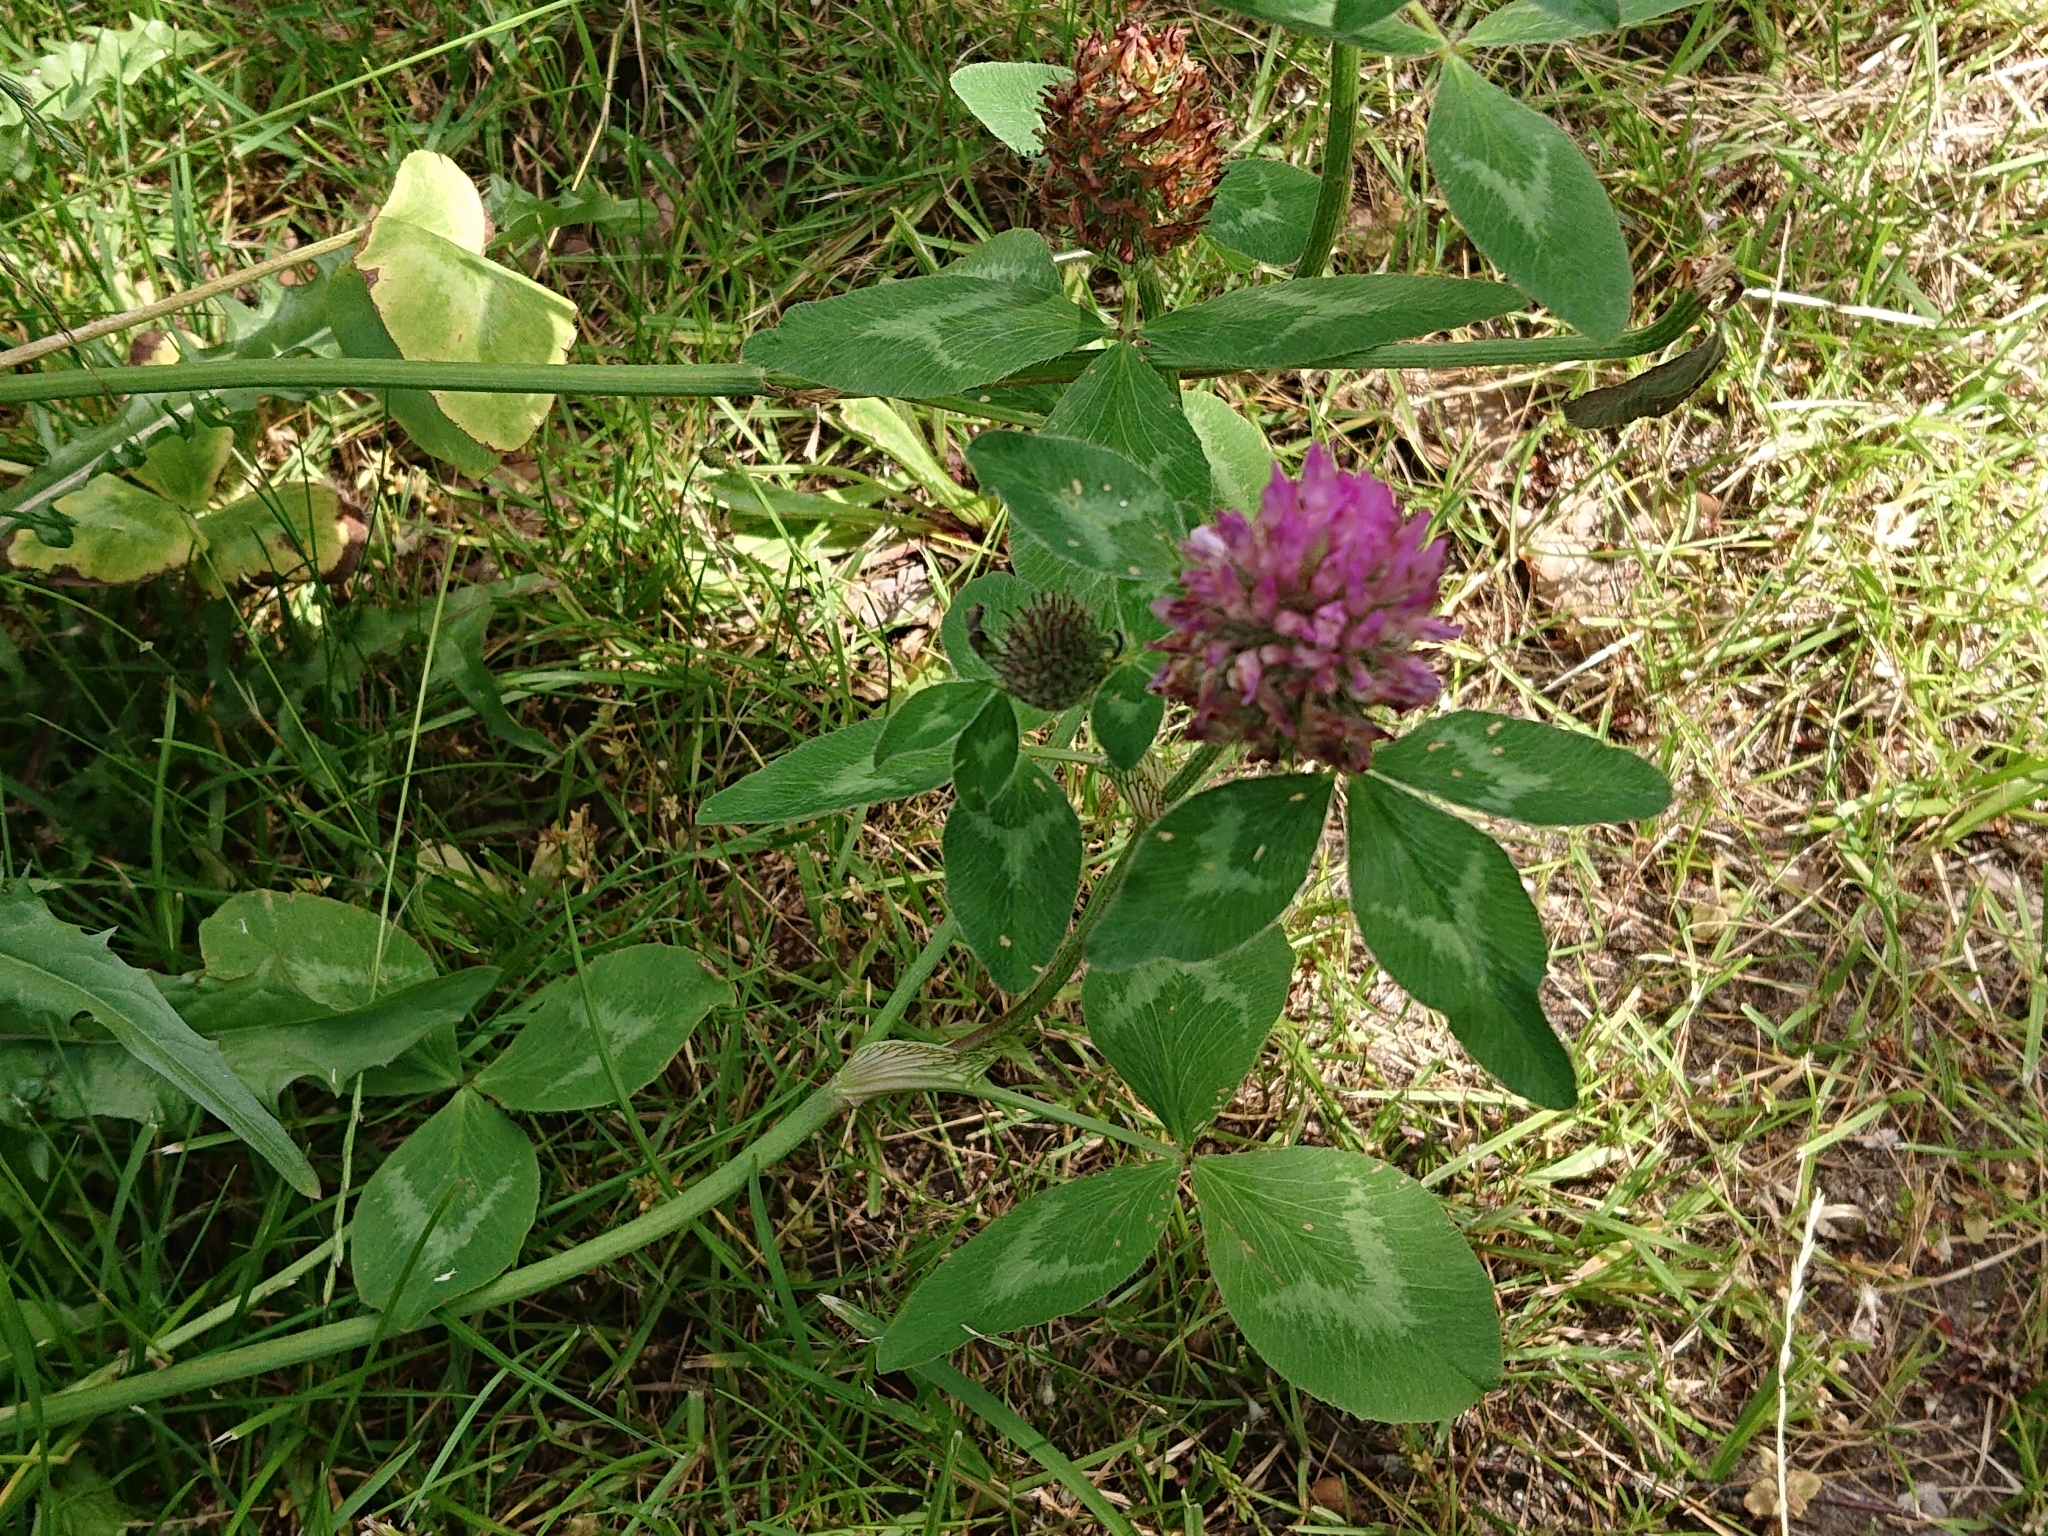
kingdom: Plantae
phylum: Tracheophyta
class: Magnoliopsida
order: Fabales
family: Fabaceae
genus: Trifolium
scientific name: Trifolium pratense
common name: Red clover
